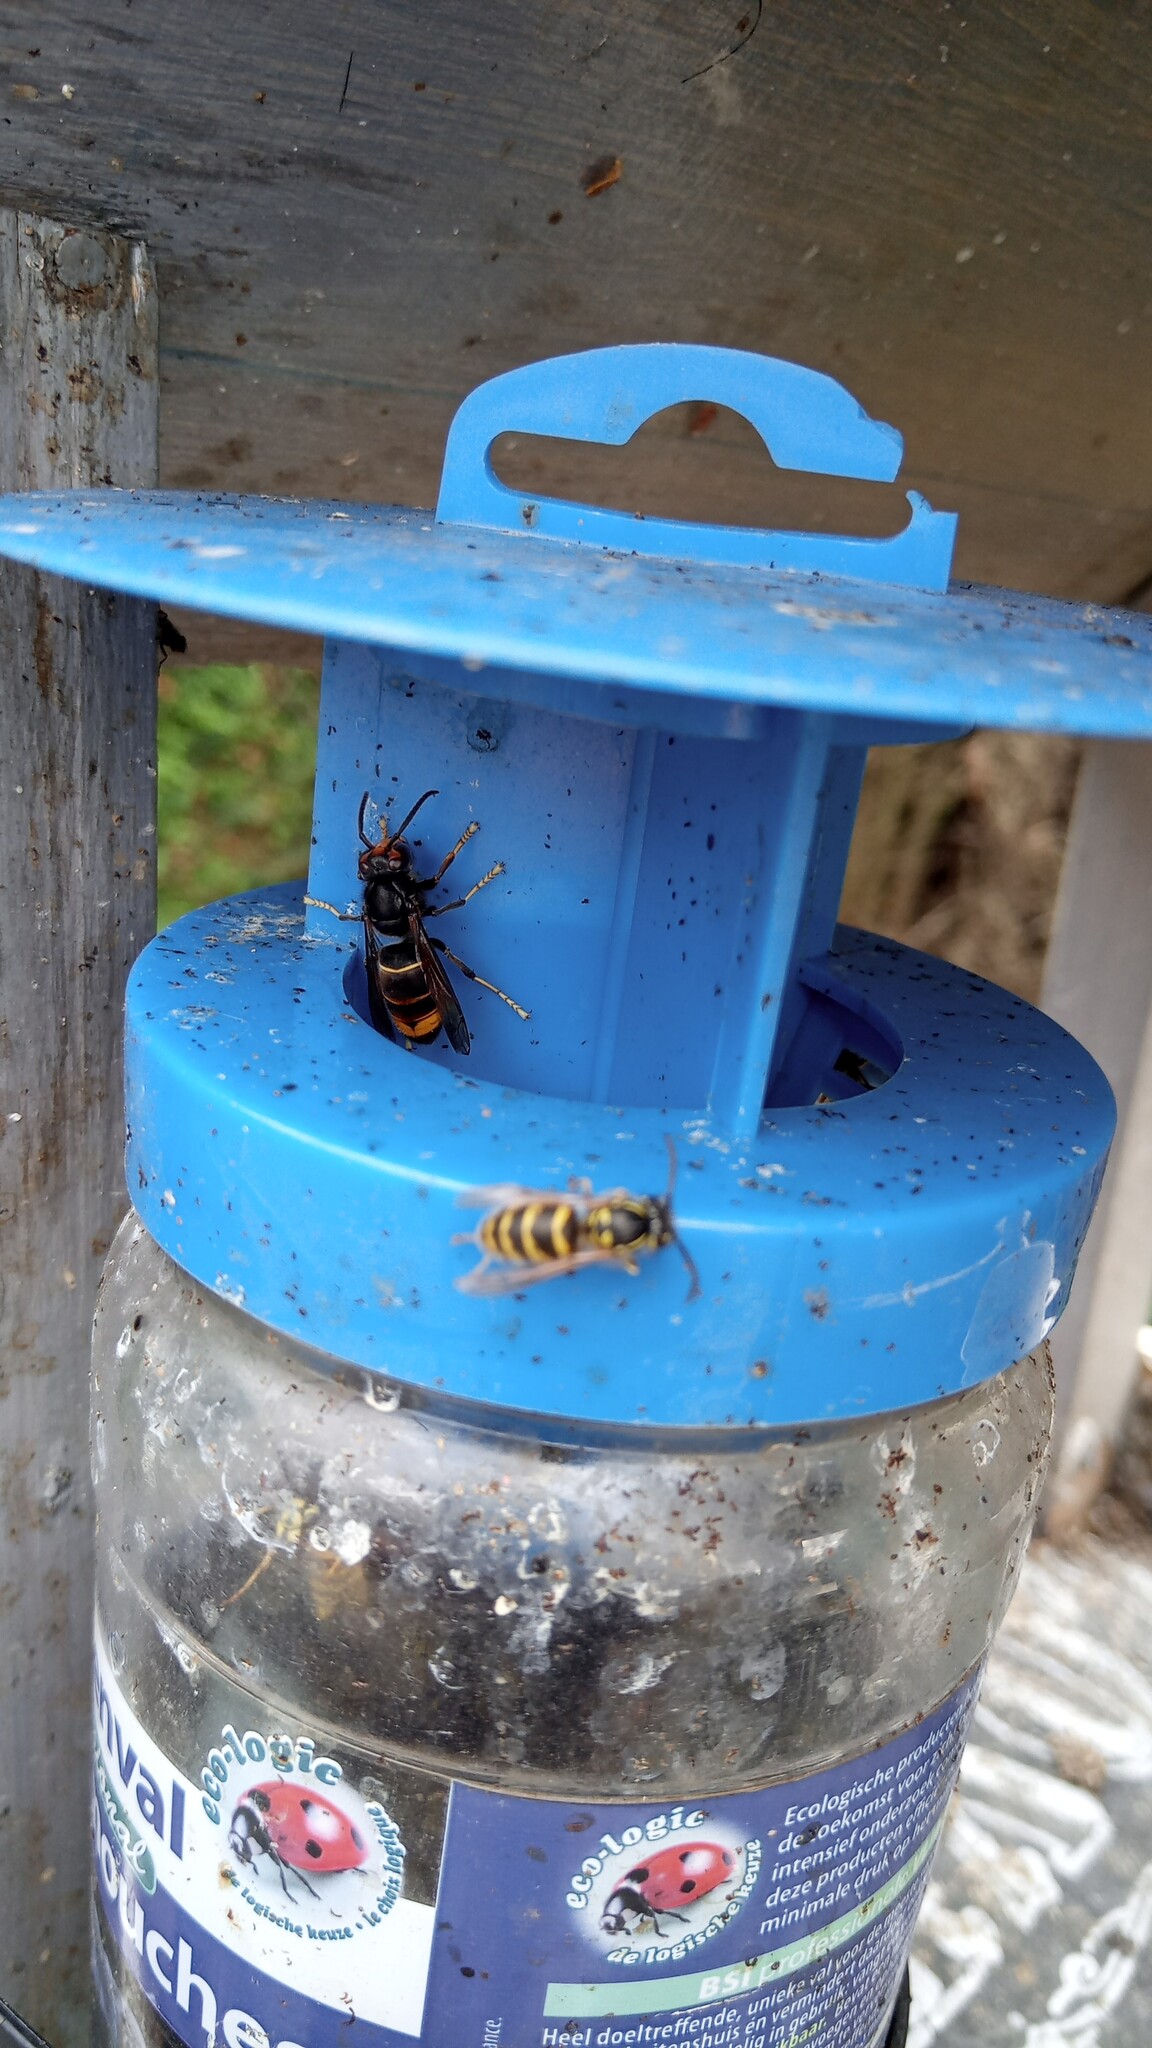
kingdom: Animalia
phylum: Arthropoda
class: Insecta
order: Hymenoptera
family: Vespidae
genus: Vespa
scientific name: Vespa velutina
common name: Asian hornet
